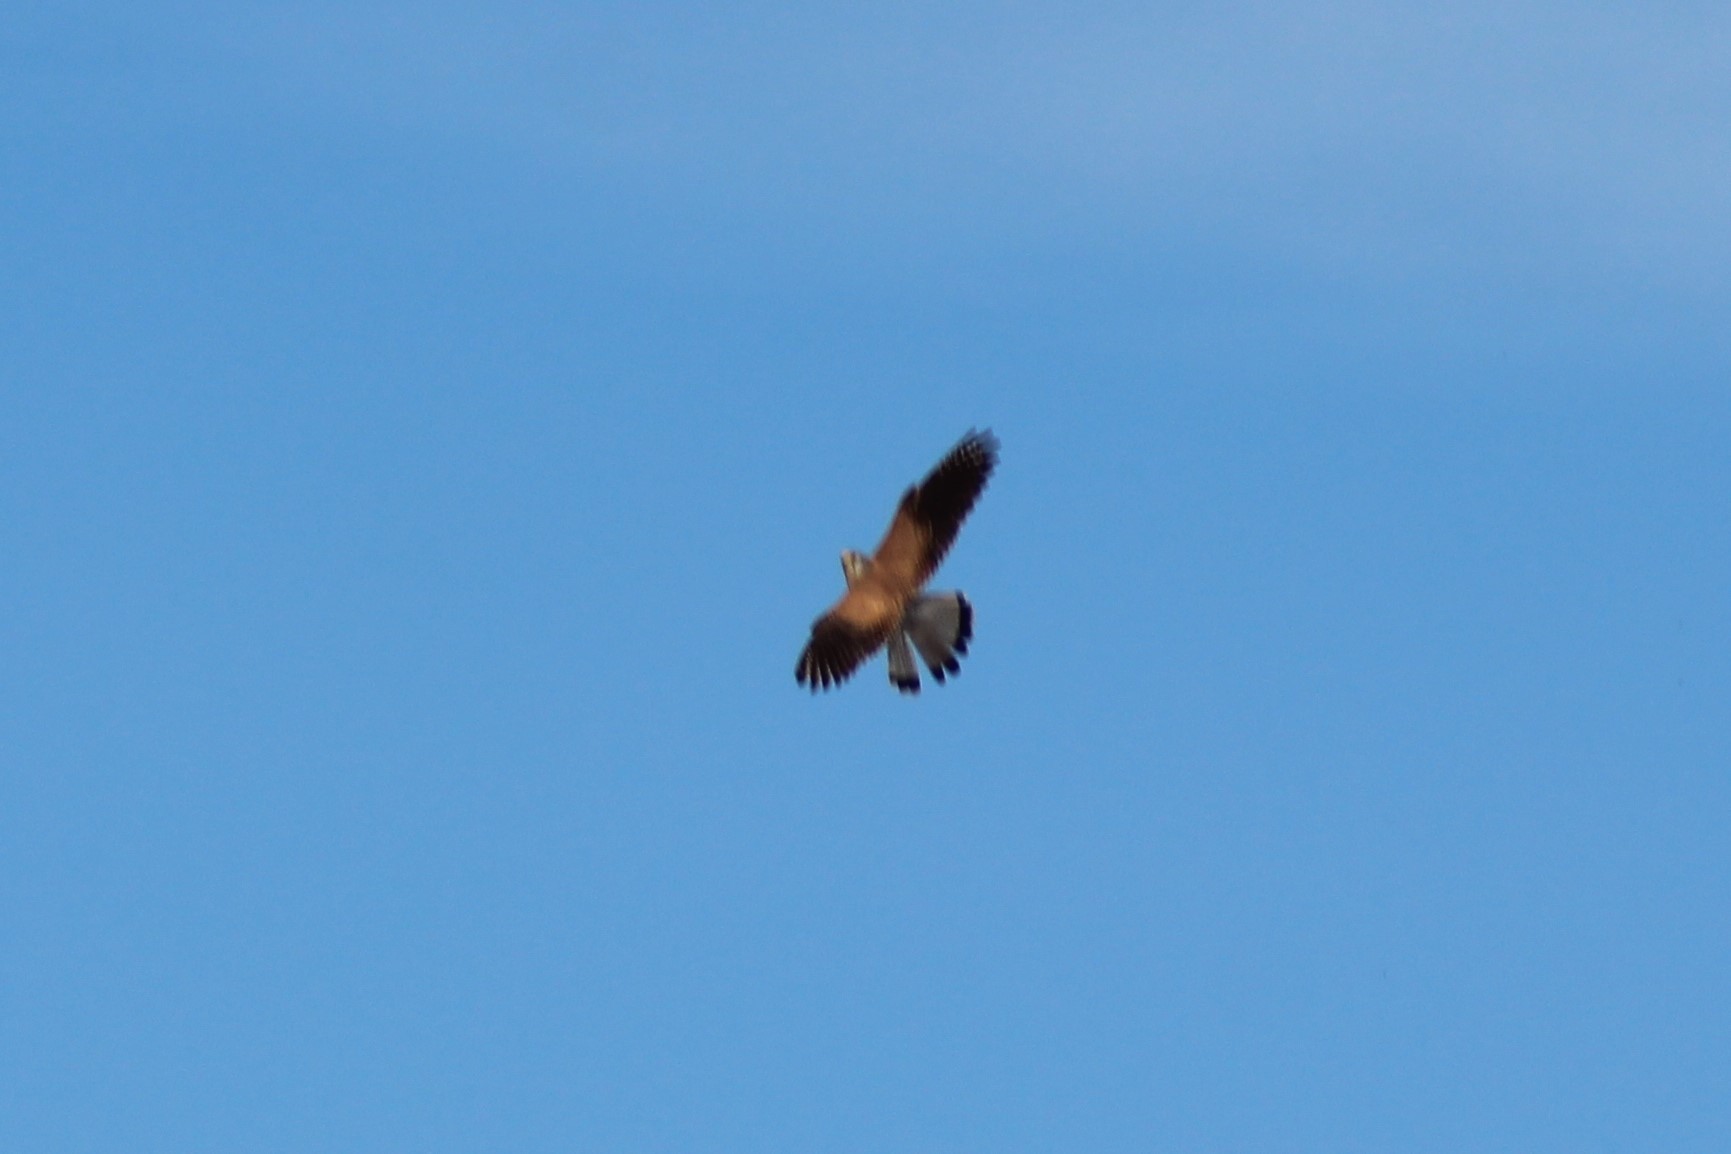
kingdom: Animalia
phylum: Chordata
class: Aves
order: Falconiformes
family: Falconidae
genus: Falco
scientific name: Falco tinnunculus
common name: Common kestrel
